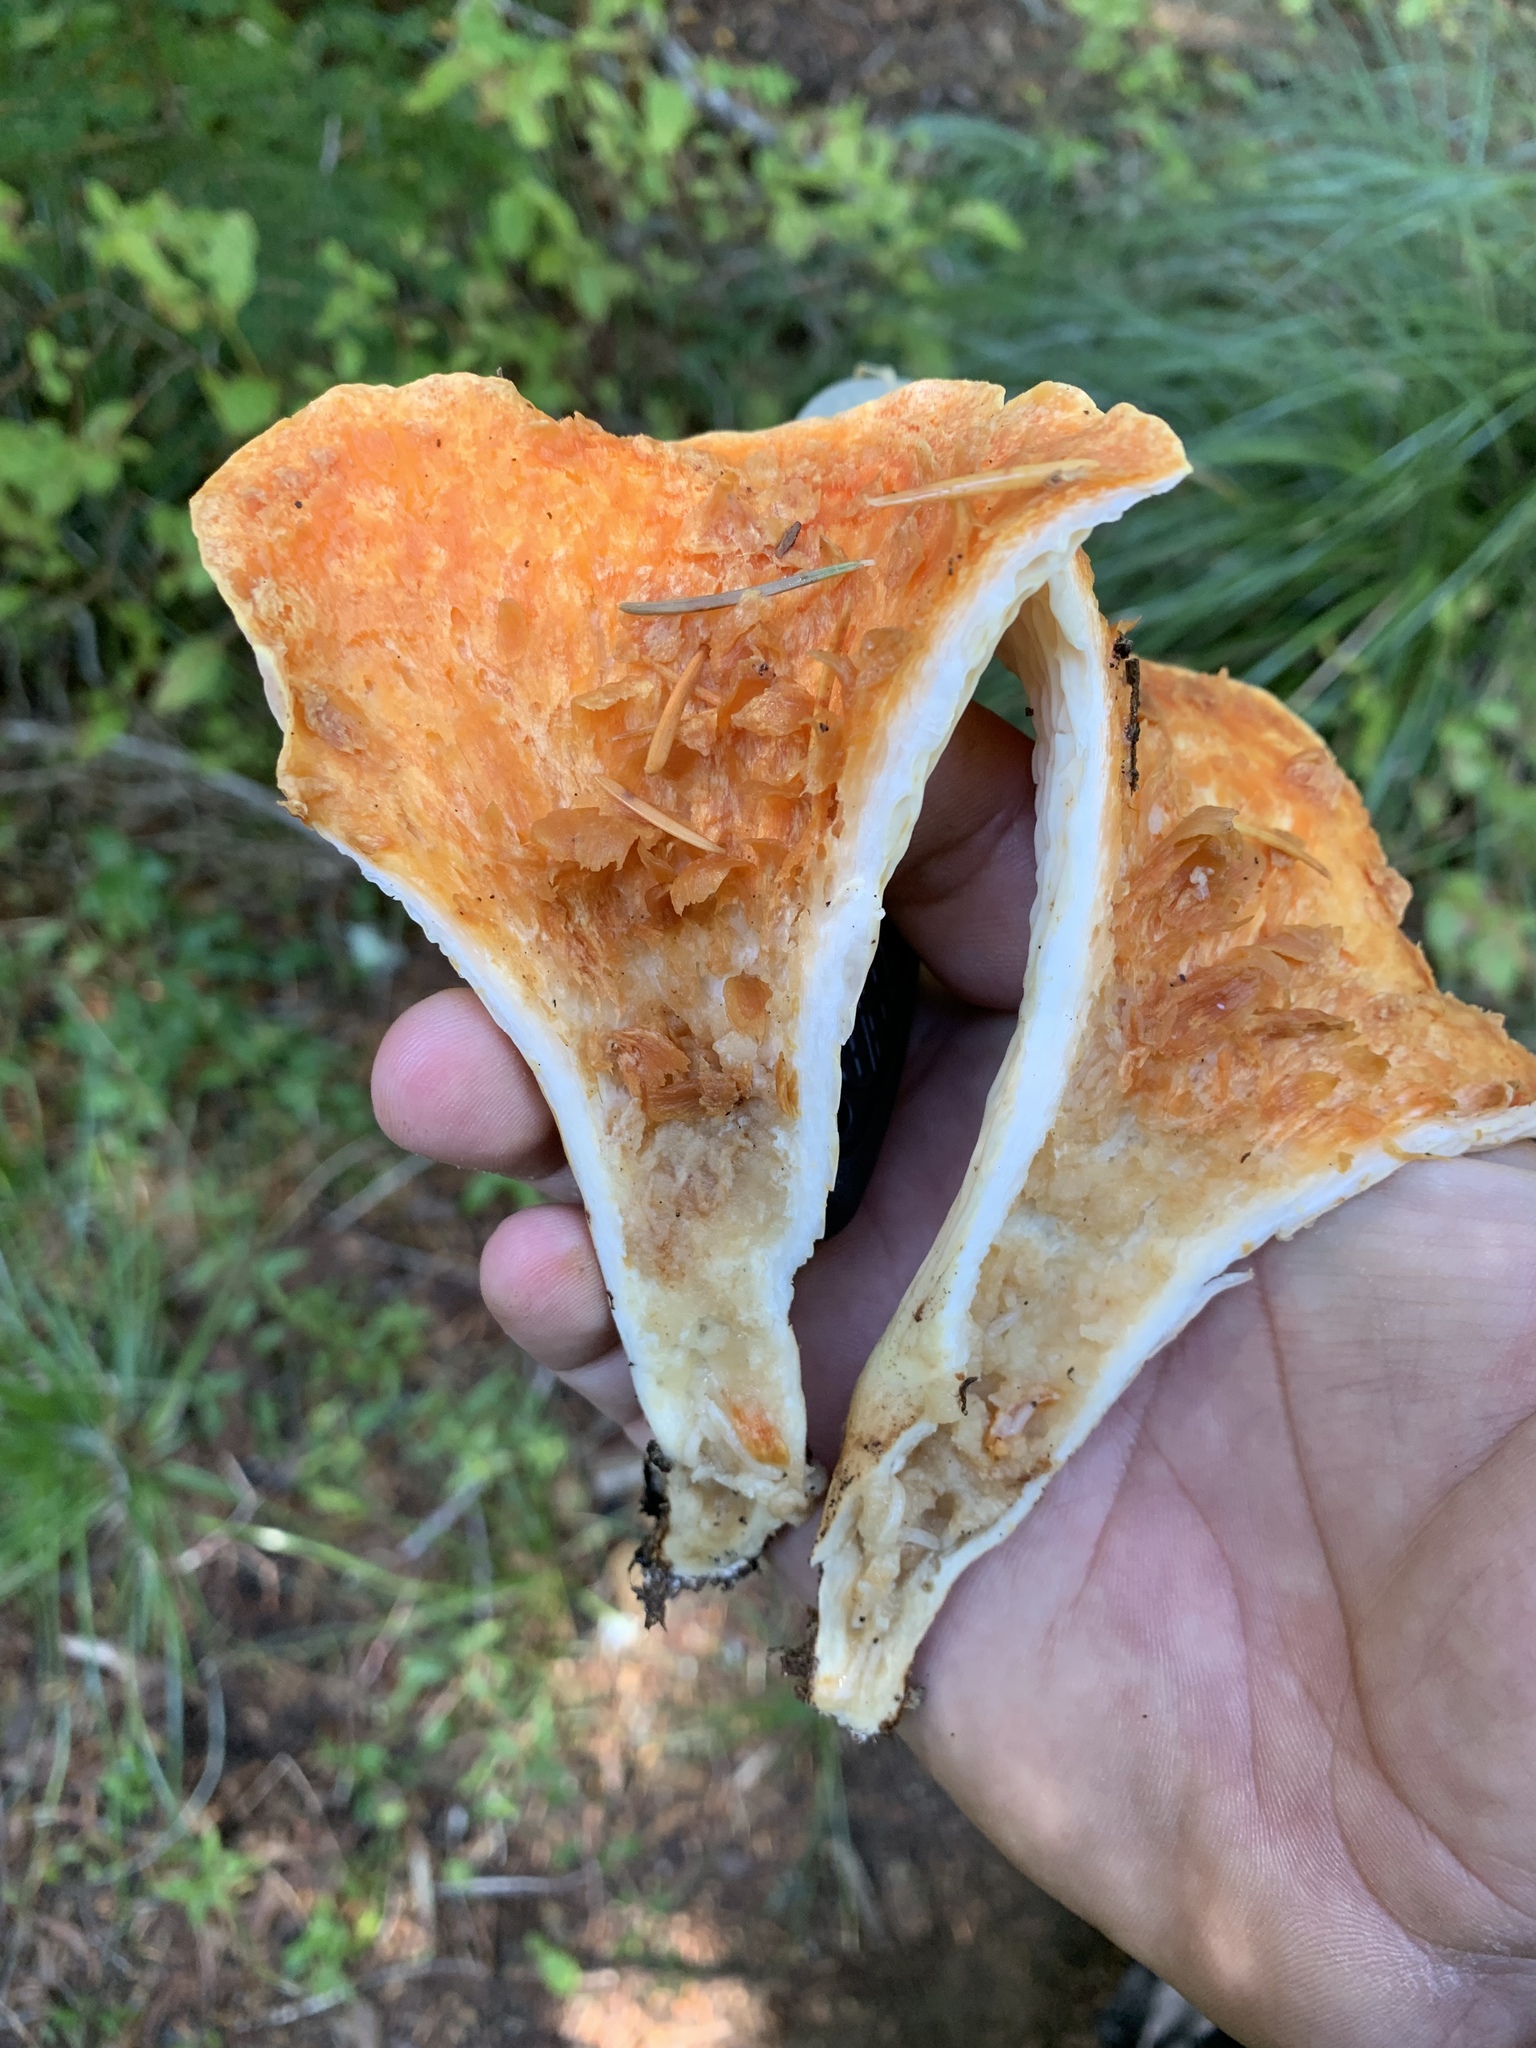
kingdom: Fungi
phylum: Basidiomycota
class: Agaricomycetes
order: Gomphales
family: Gomphaceae
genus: Turbinellus
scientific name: Turbinellus floccosus
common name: Scaly chanterelle
